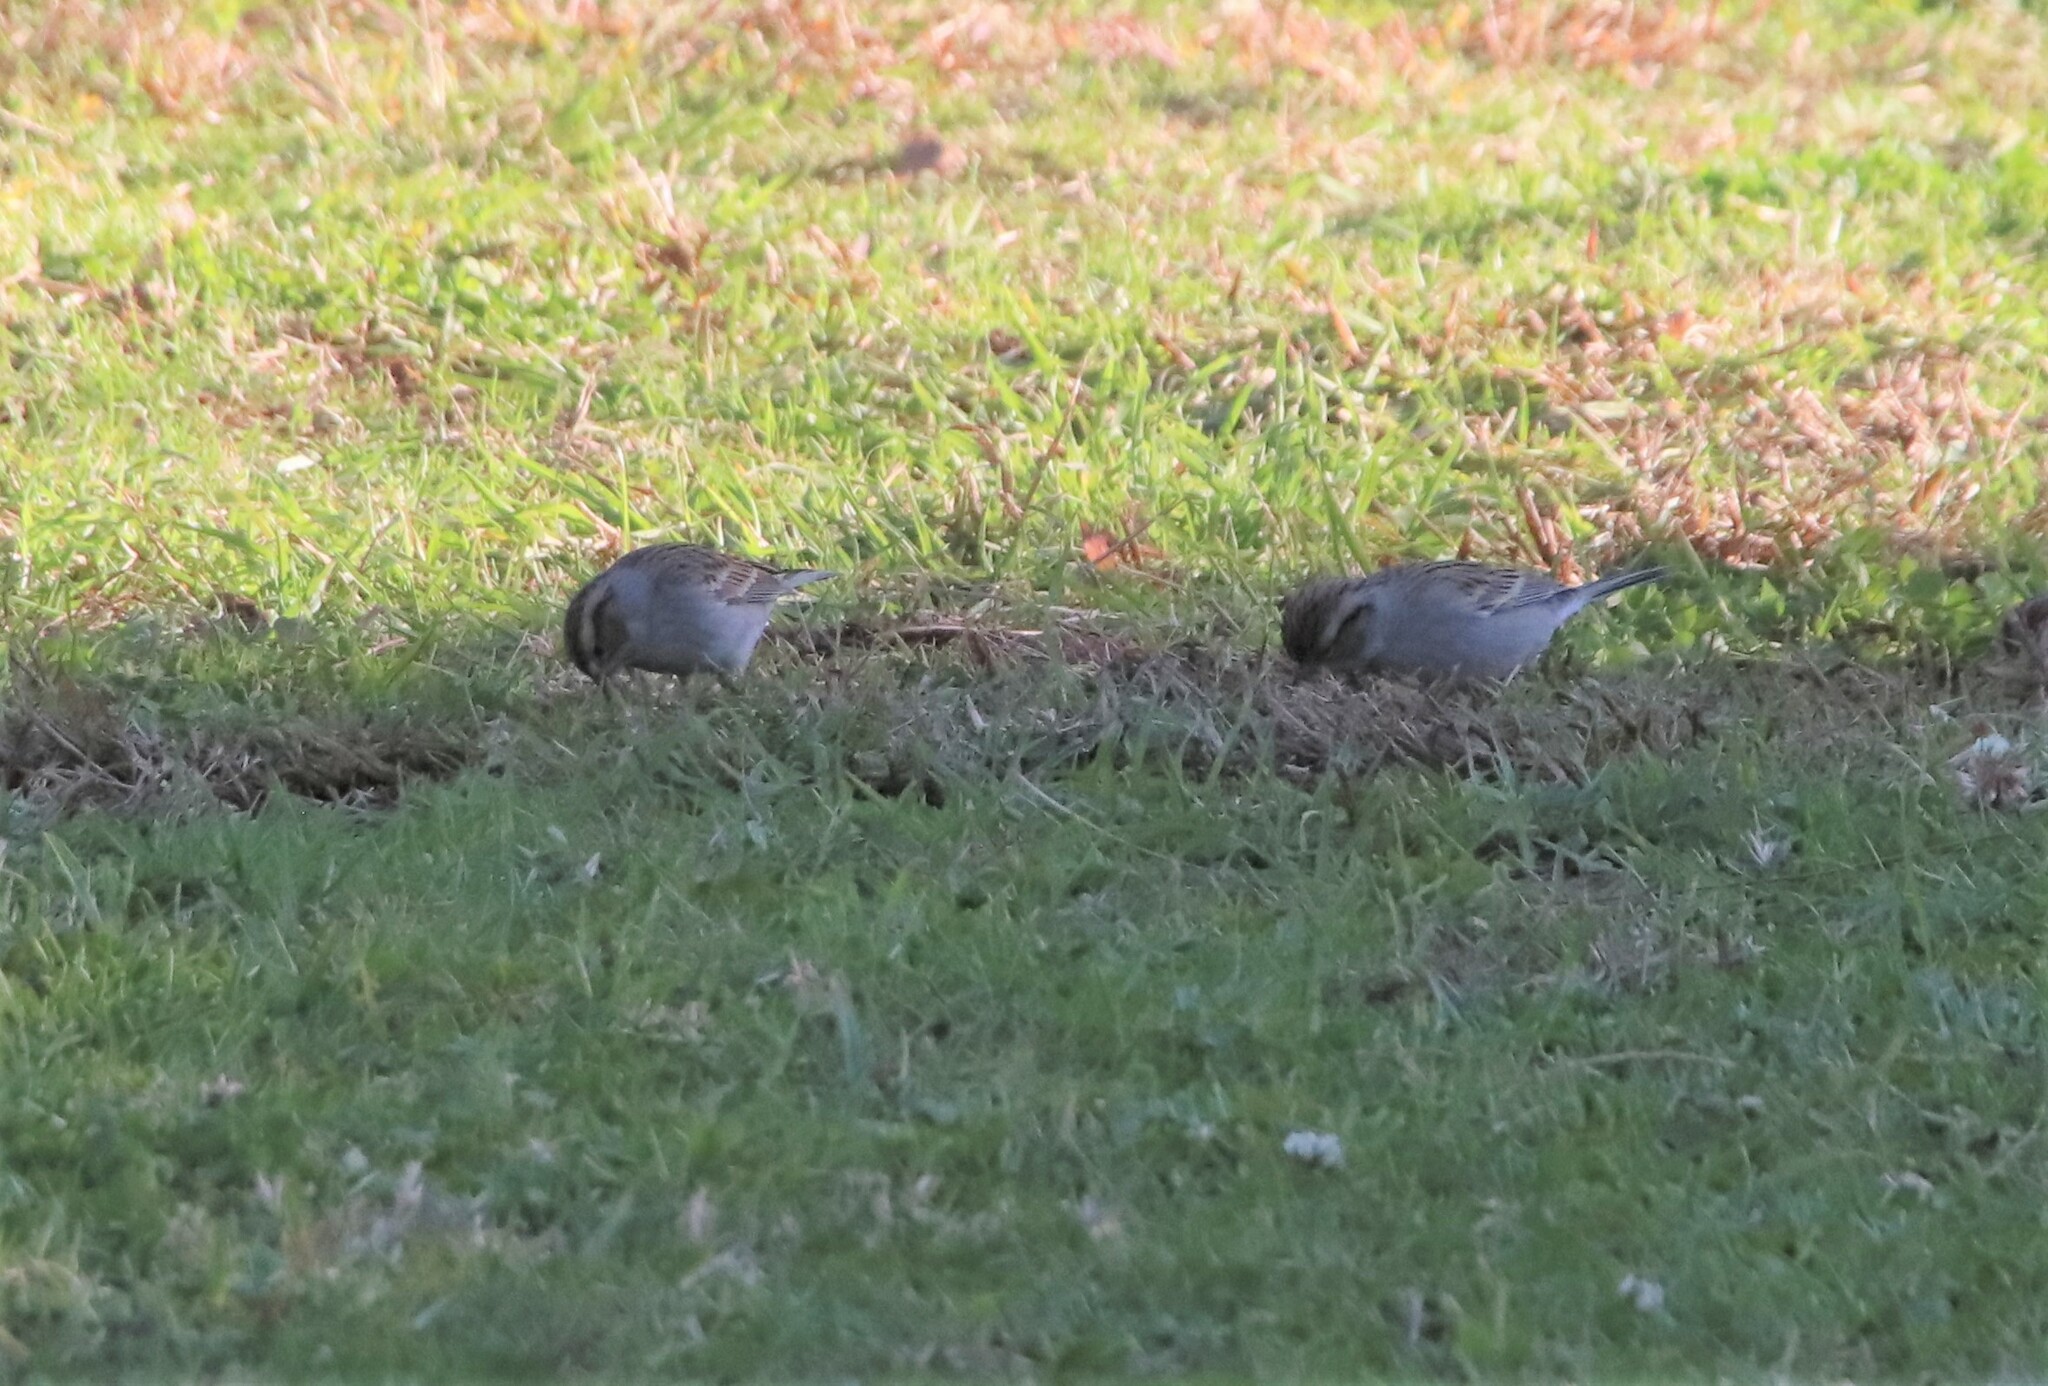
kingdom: Animalia
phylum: Chordata
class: Aves
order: Passeriformes
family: Passerellidae
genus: Spizella
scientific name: Spizella passerina
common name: Chipping sparrow
